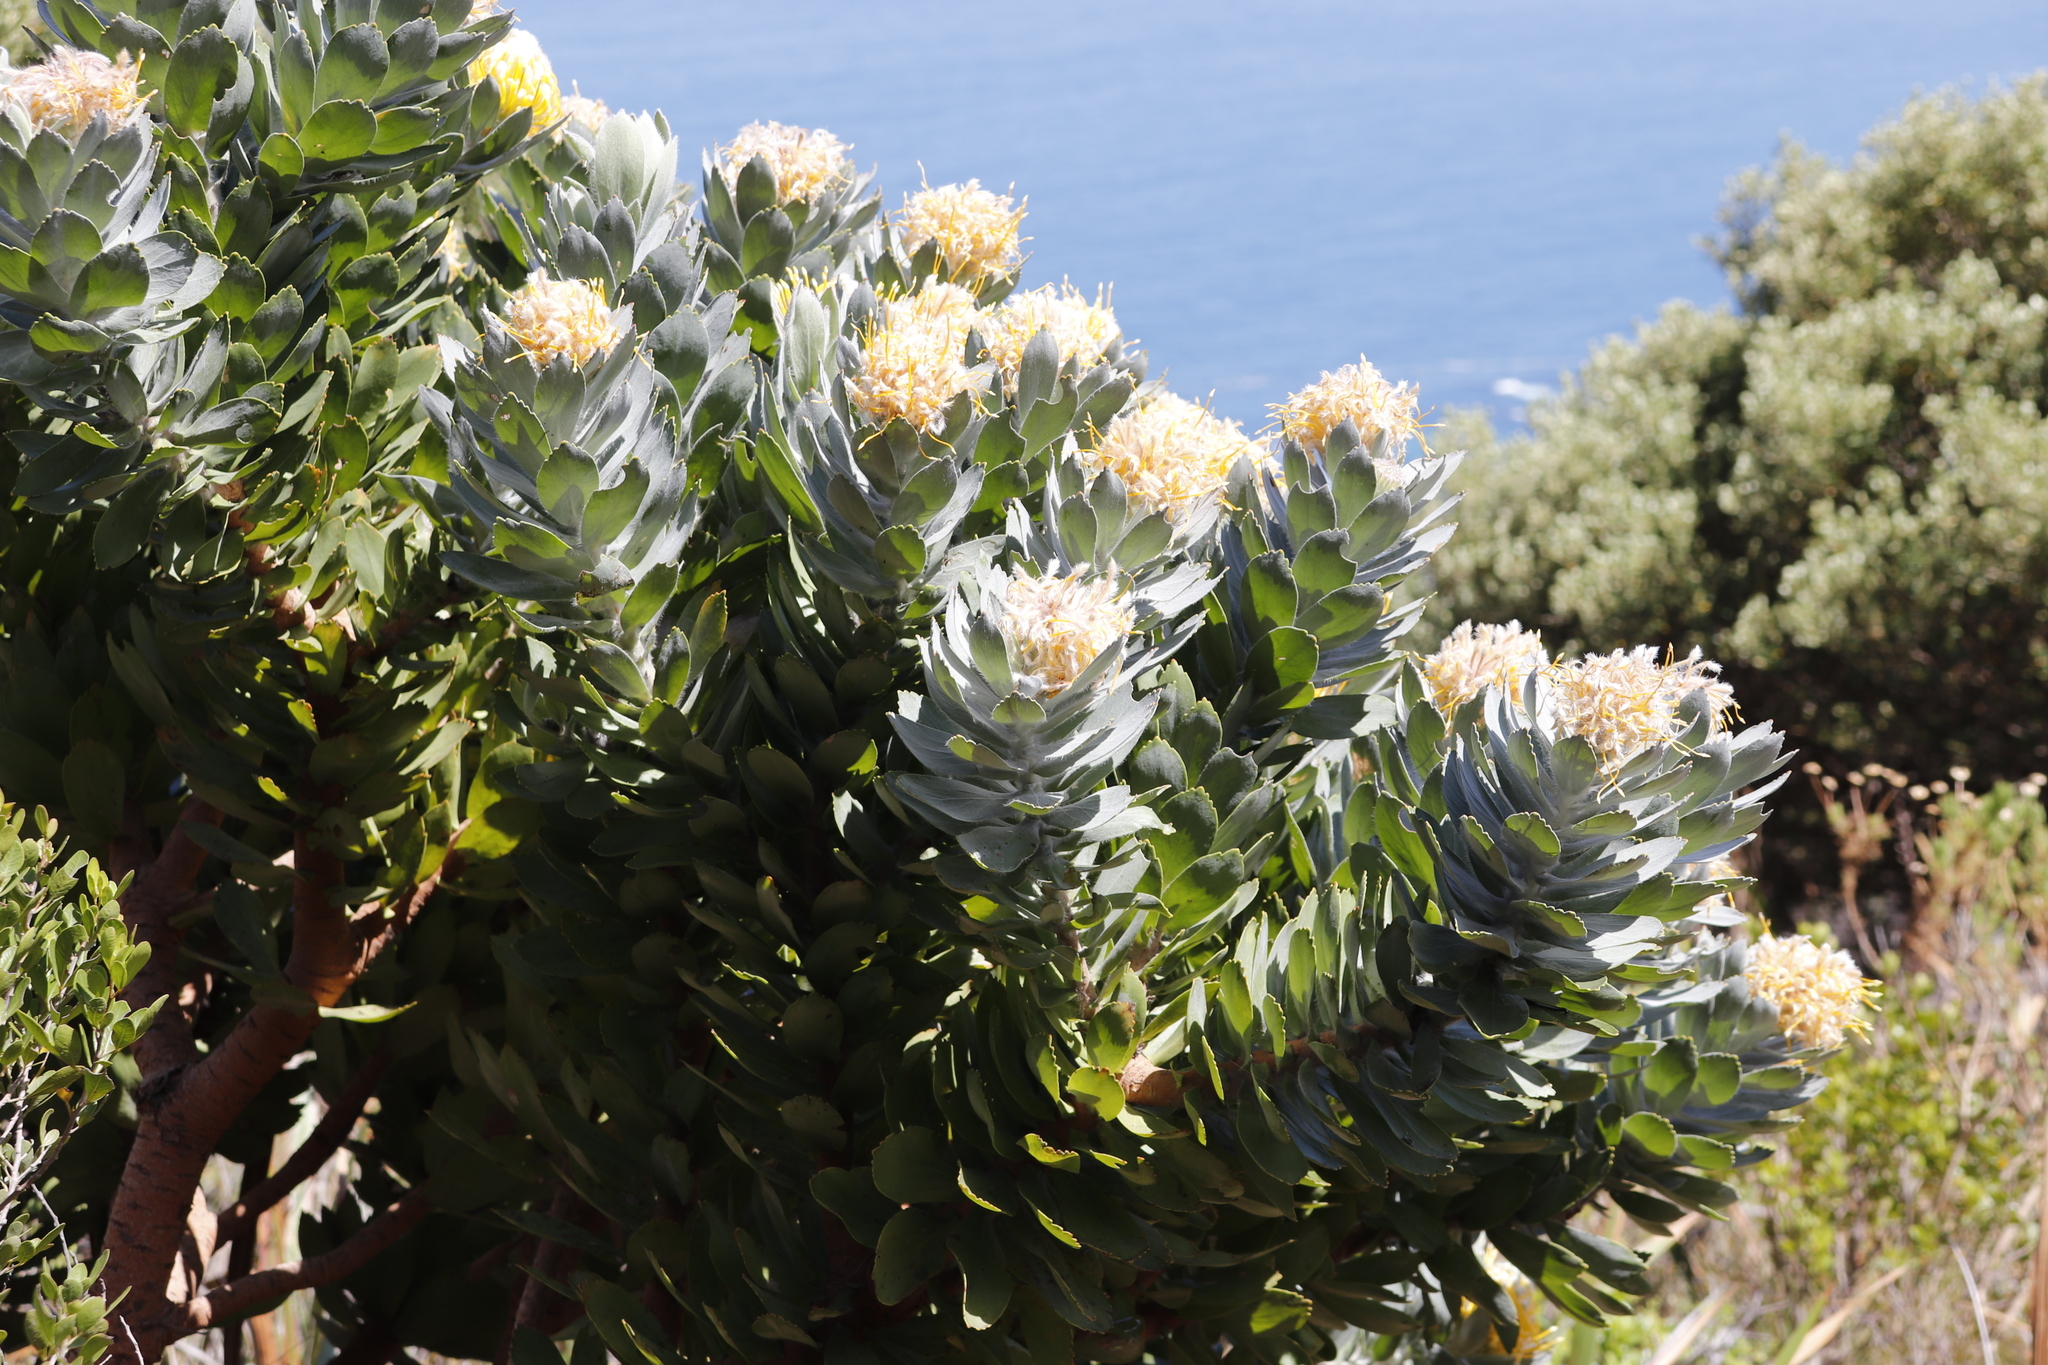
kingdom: Plantae
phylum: Tracheophyta
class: Magnoliopsida
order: Proteales
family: Proteaceae
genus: Leucospermum
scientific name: Leucospermum conocarpodendron
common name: Tree pincushion
